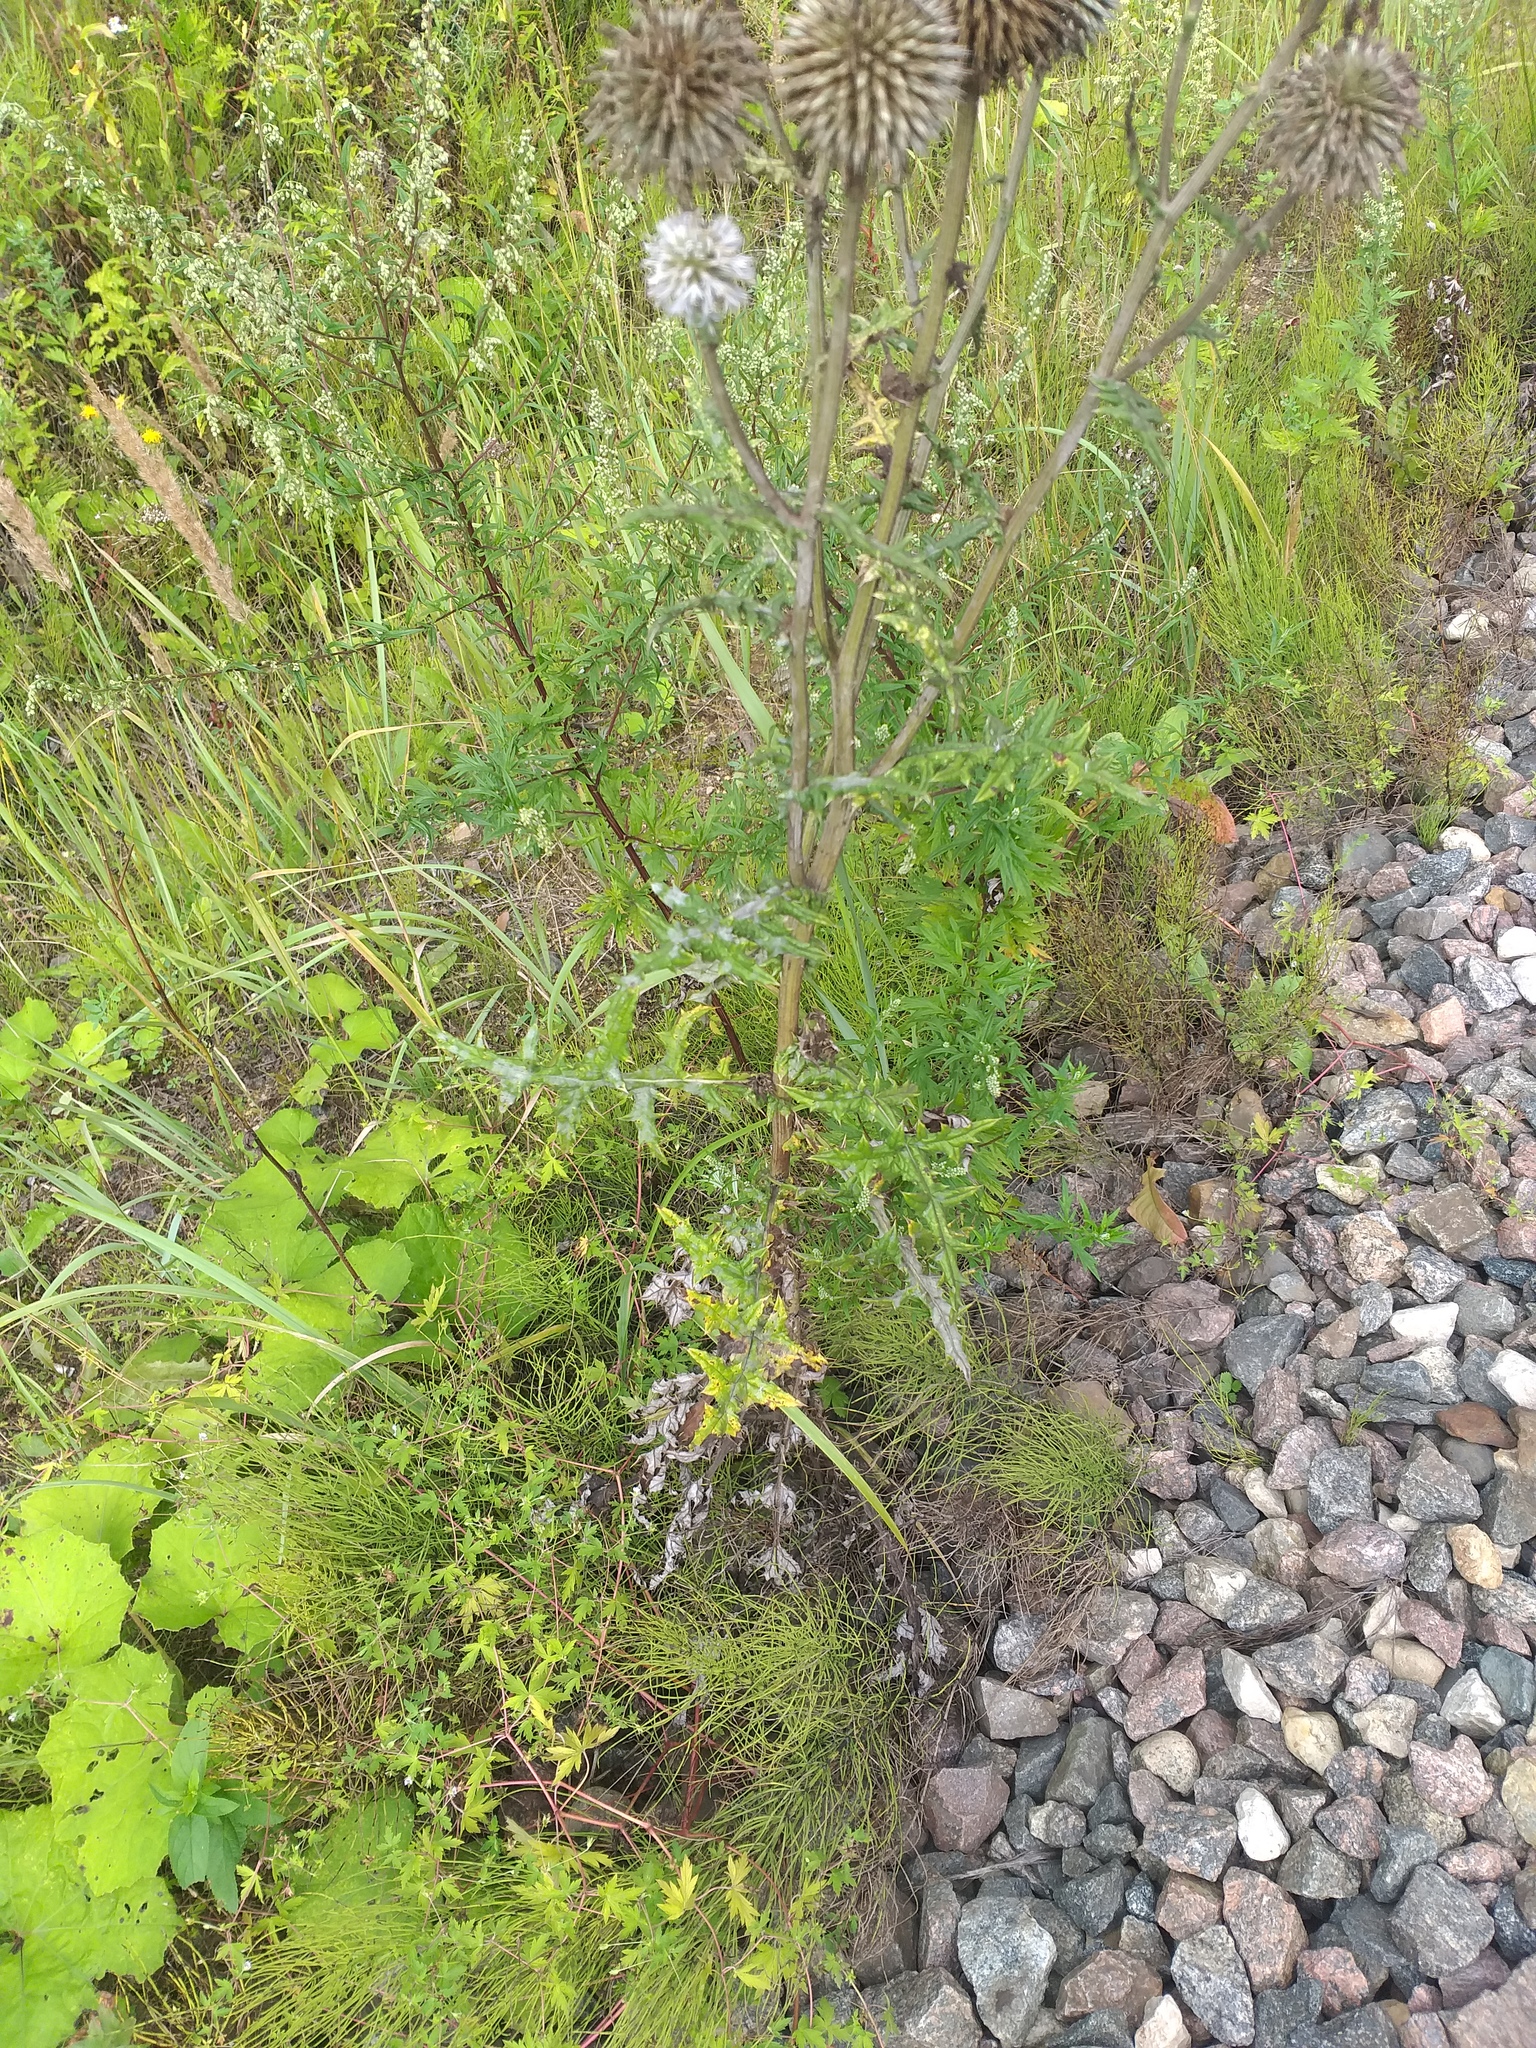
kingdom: Plantae
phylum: Tracheophyta
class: Magnoliopsida
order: Asterales
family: Asteraceae
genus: Echinops
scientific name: Echinops sphaerocephalus
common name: Glandular globe-thistle
